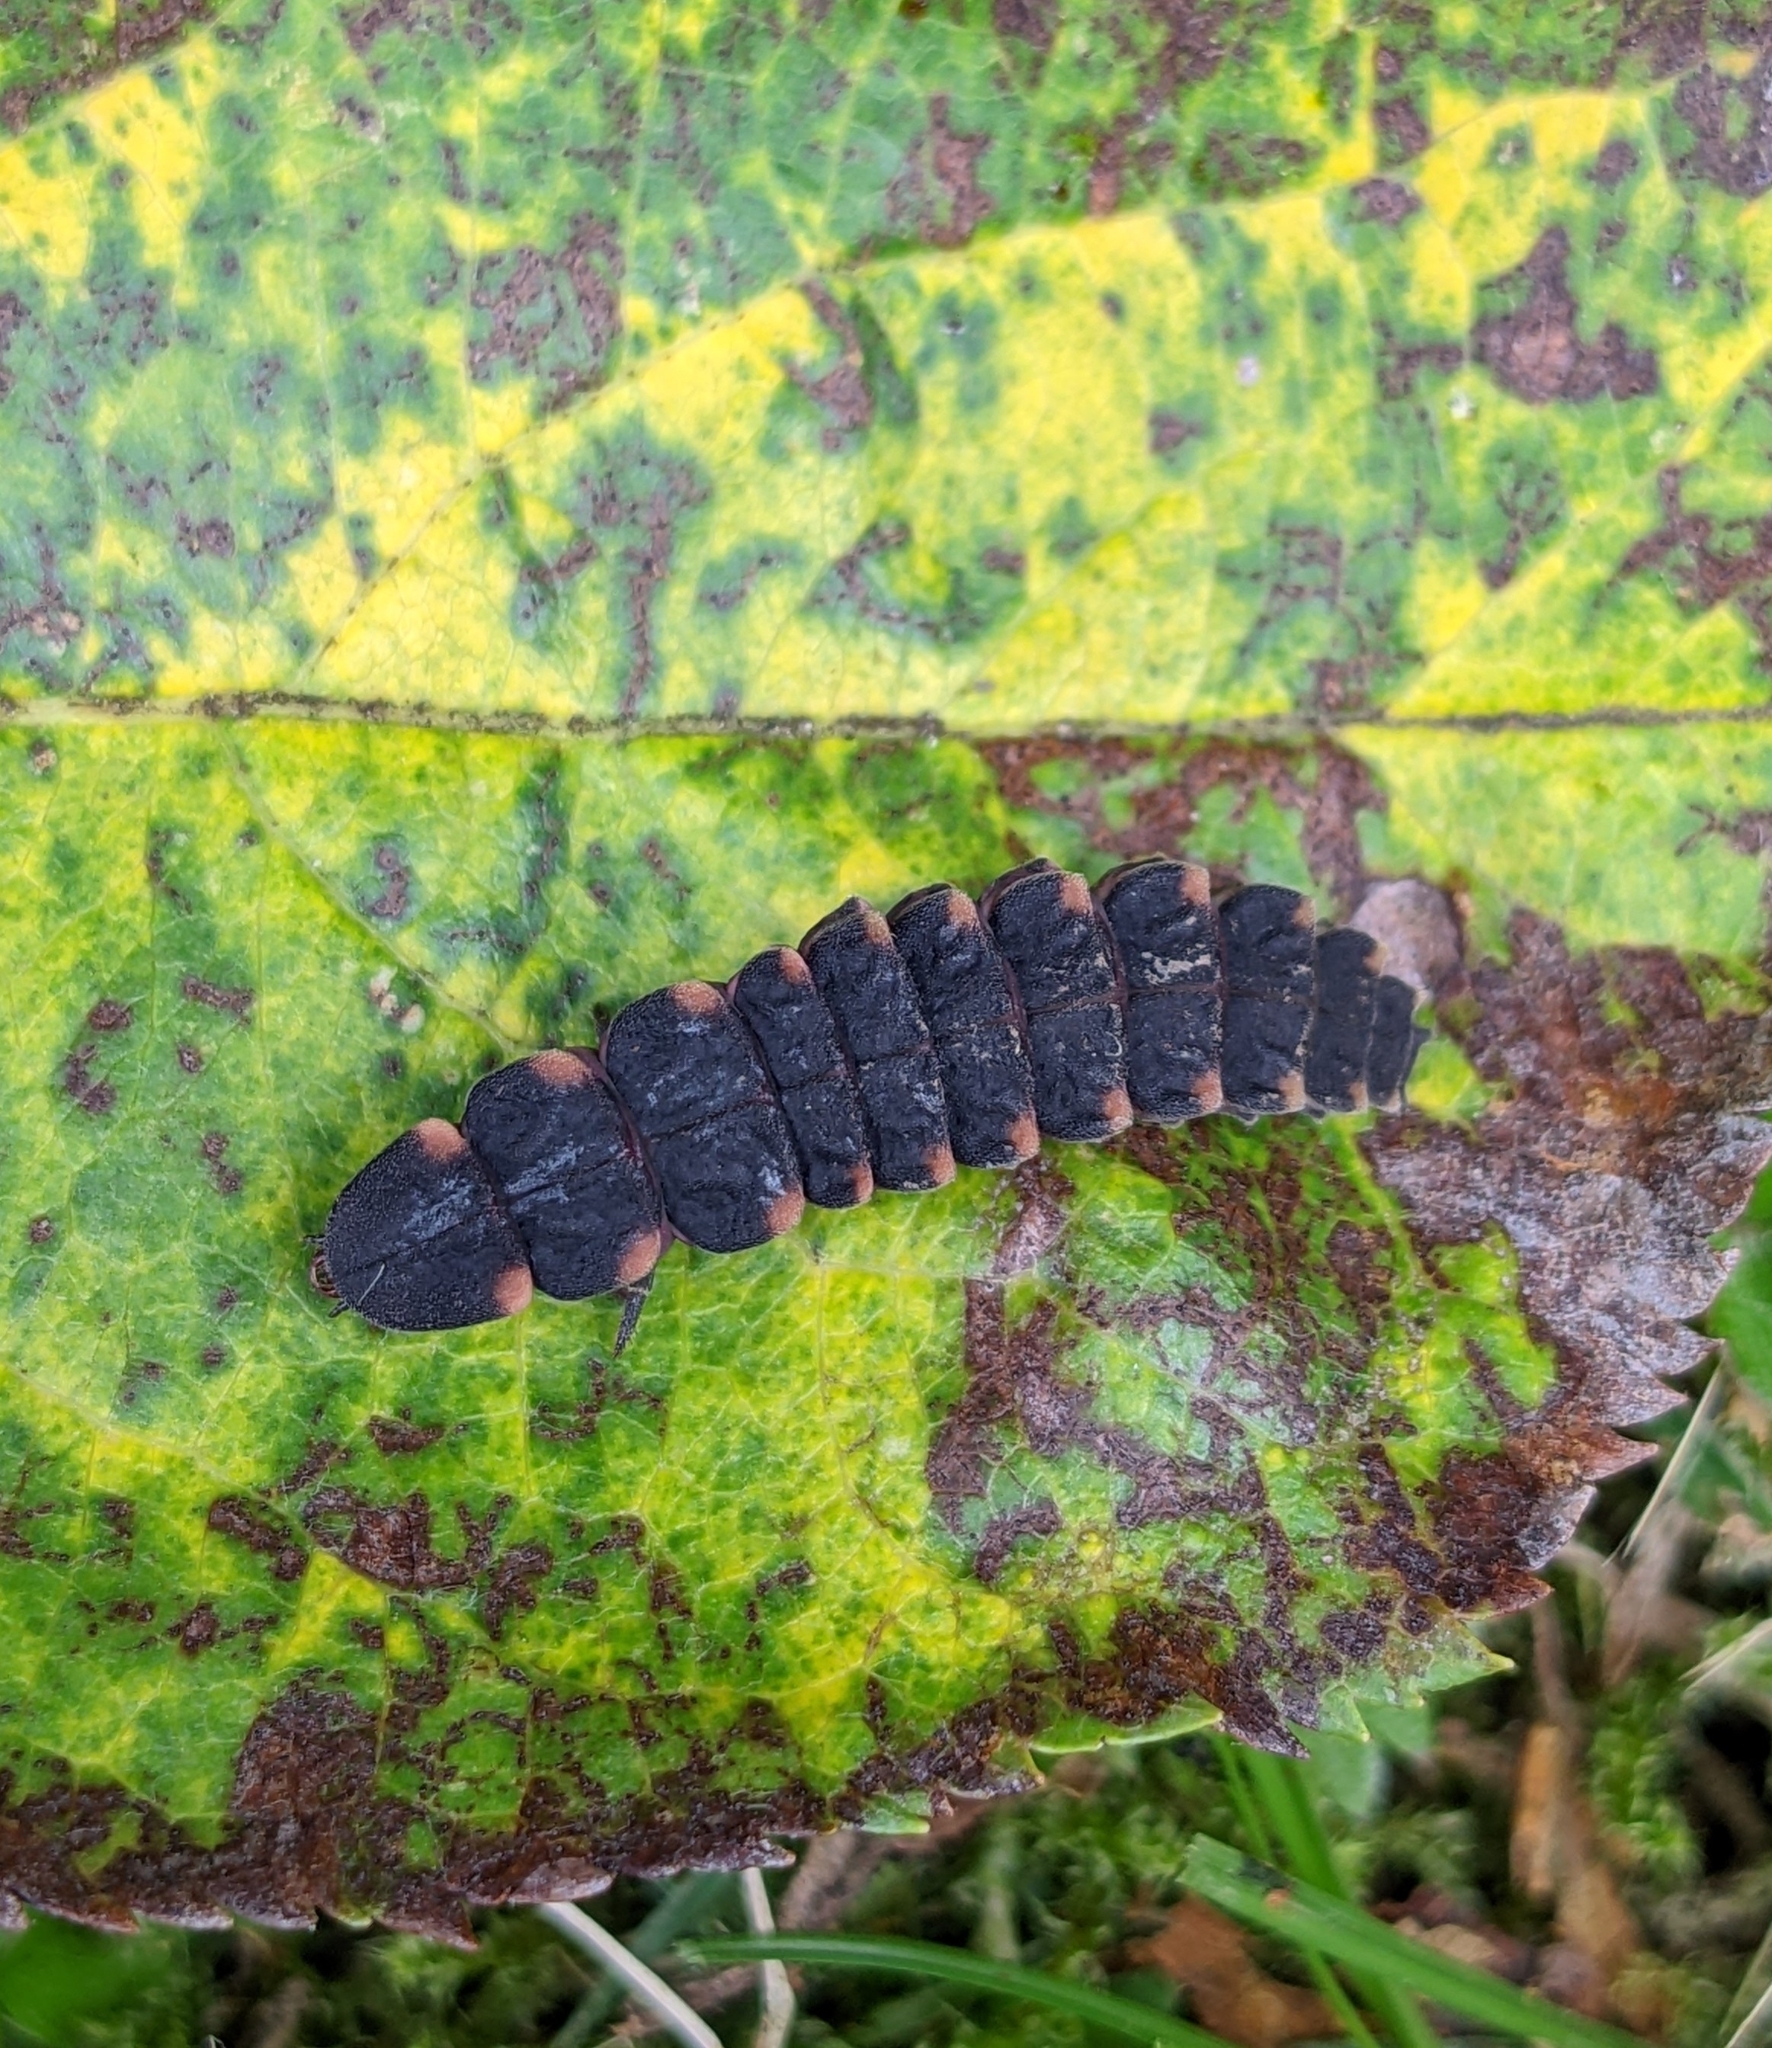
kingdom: Animalia
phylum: Arthropoda
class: Insecta
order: Coleoptera
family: Lampyridae
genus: Lampyris
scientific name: Lampyris noctiluca
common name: Glow-worm
